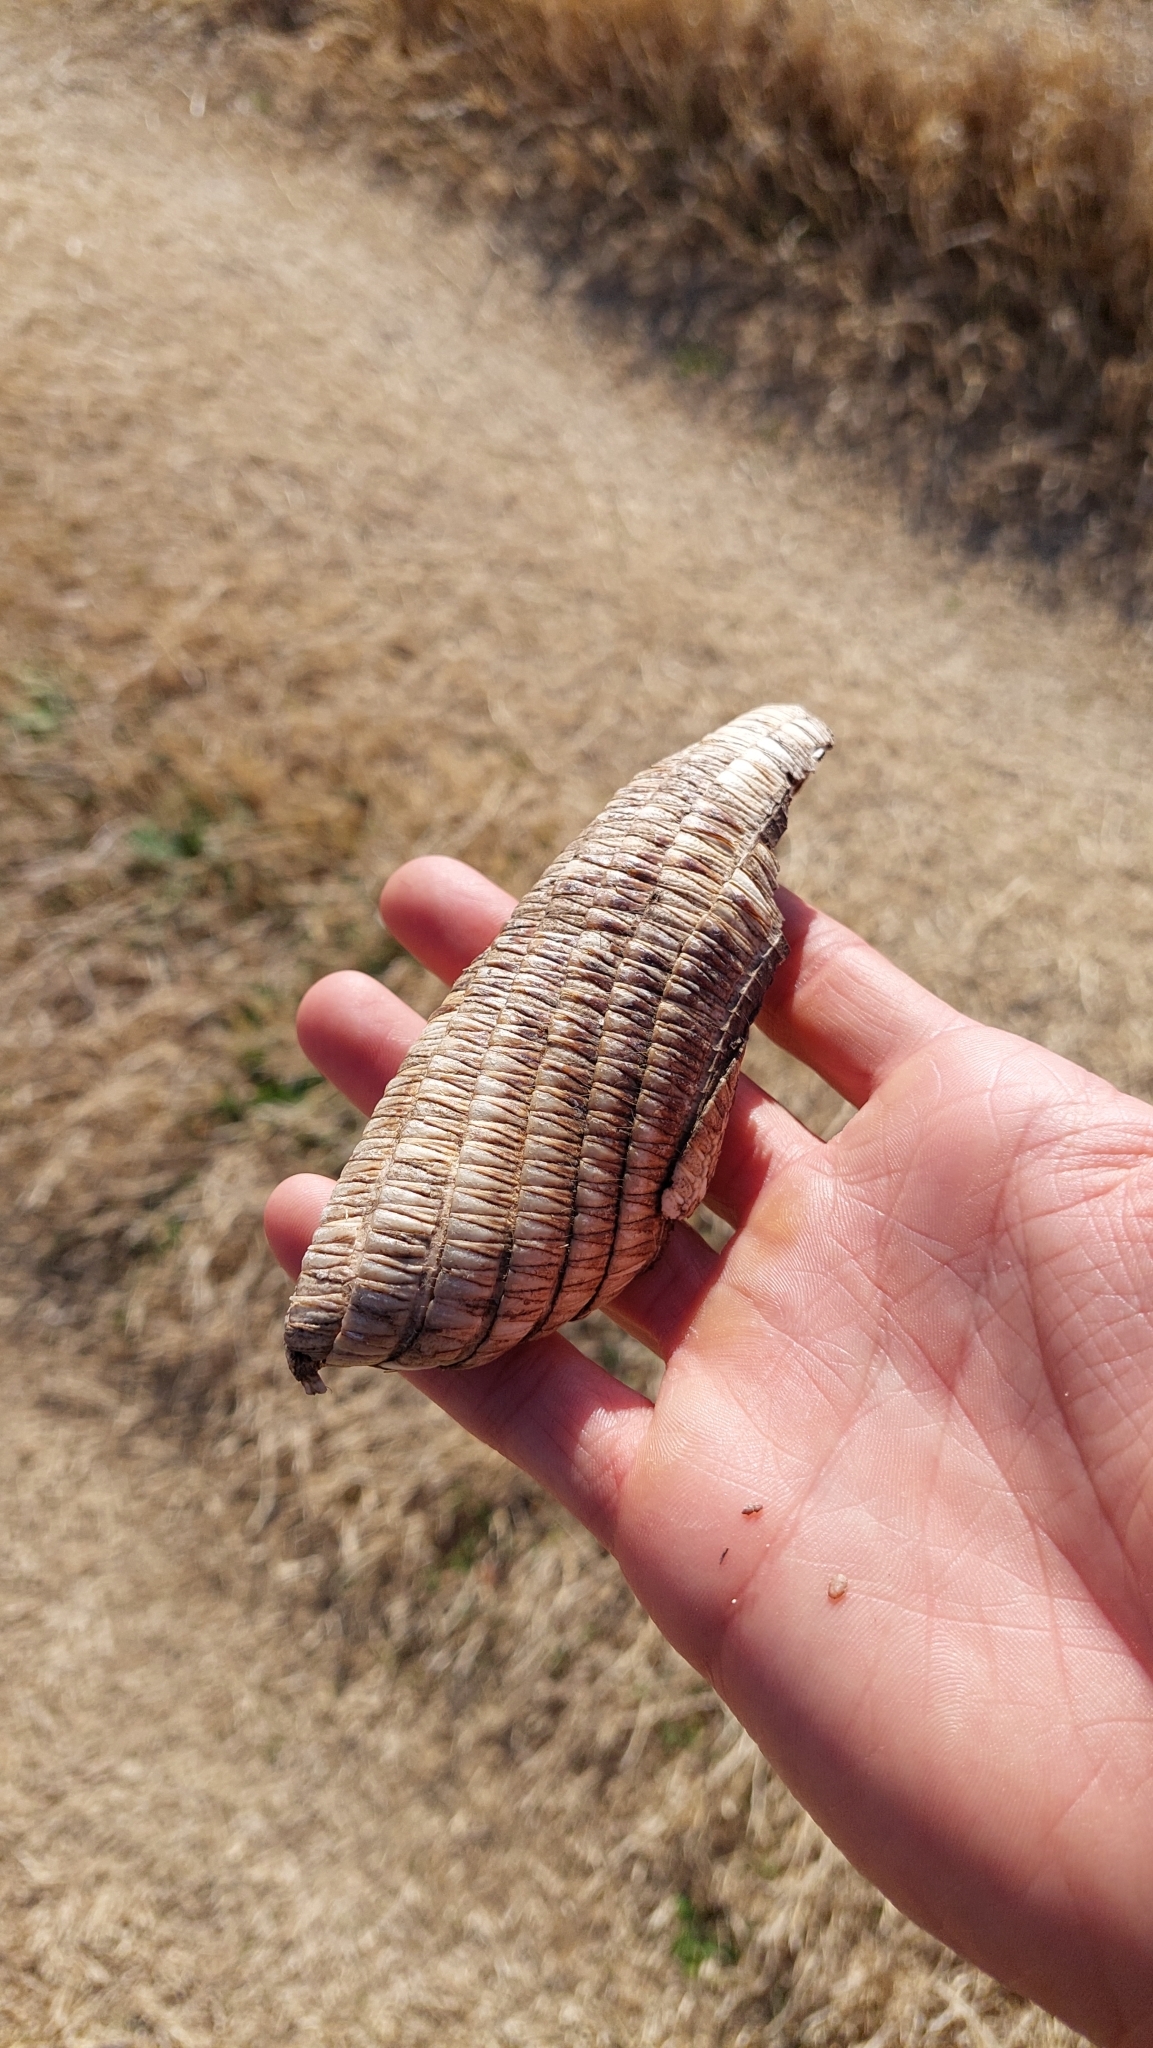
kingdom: Animalia
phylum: Chordata
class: Mammalia
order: Cingulata
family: Dasypodidae
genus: Dasypus
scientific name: Dasypus septemcinctus
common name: Seven-banded armadillo
